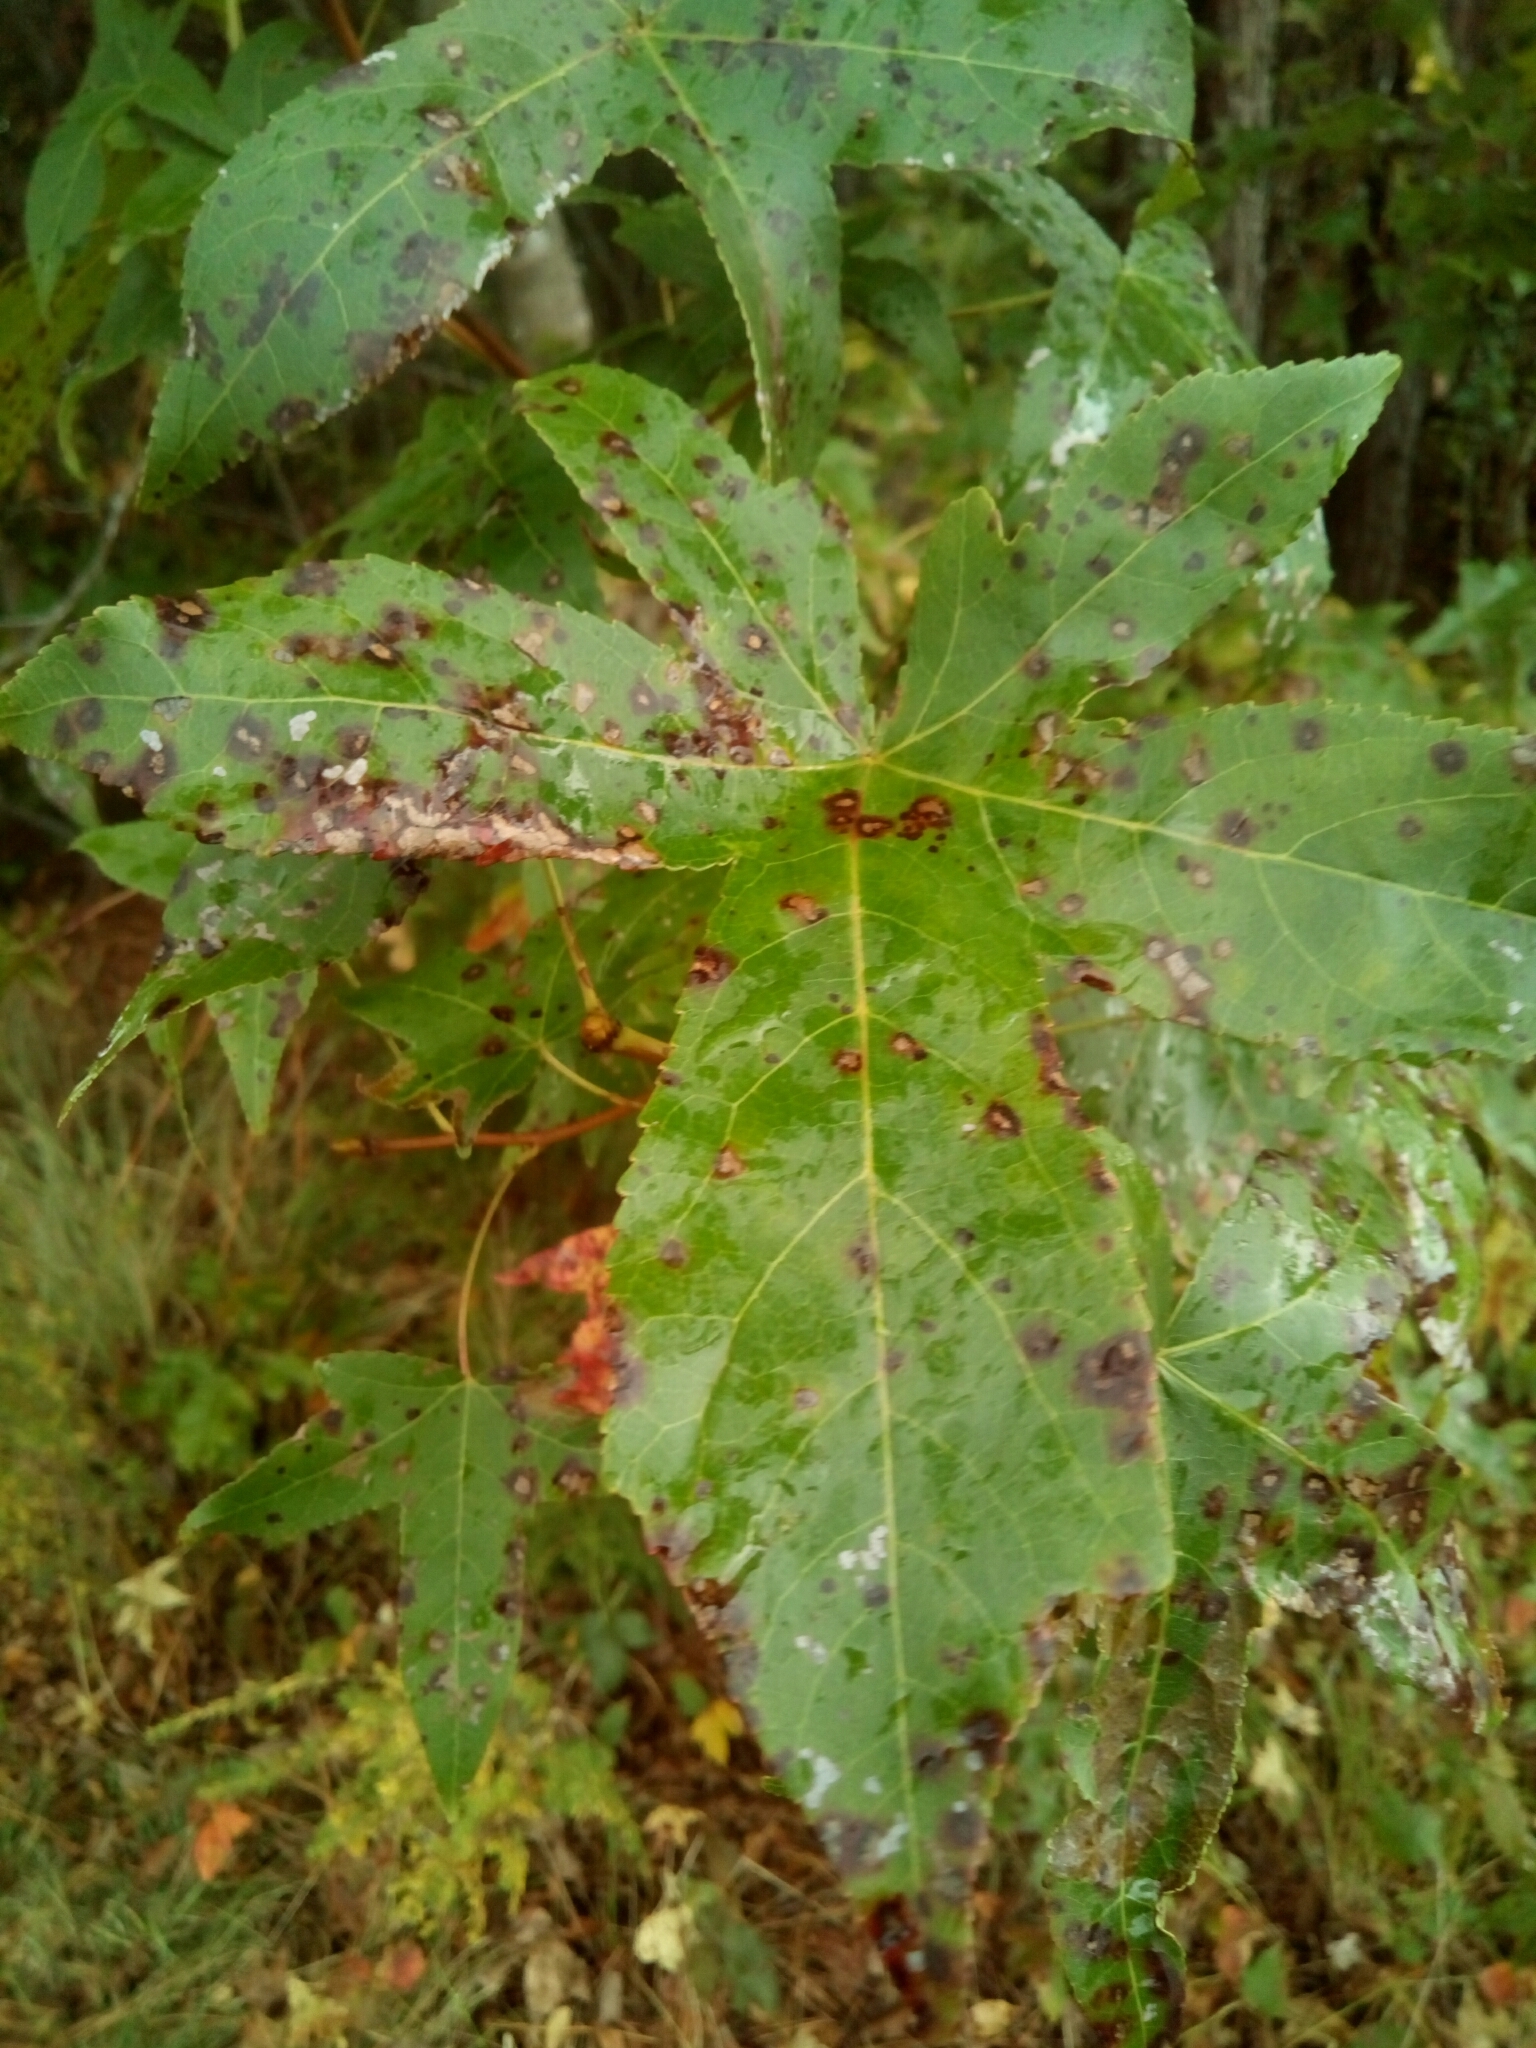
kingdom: Plantae
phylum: Tracheophyta
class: Magnoliopsida
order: Saxifragales
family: Altingiaceae
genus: Liquidambar
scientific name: Liquidambar styraciflua
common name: Sweet gum
